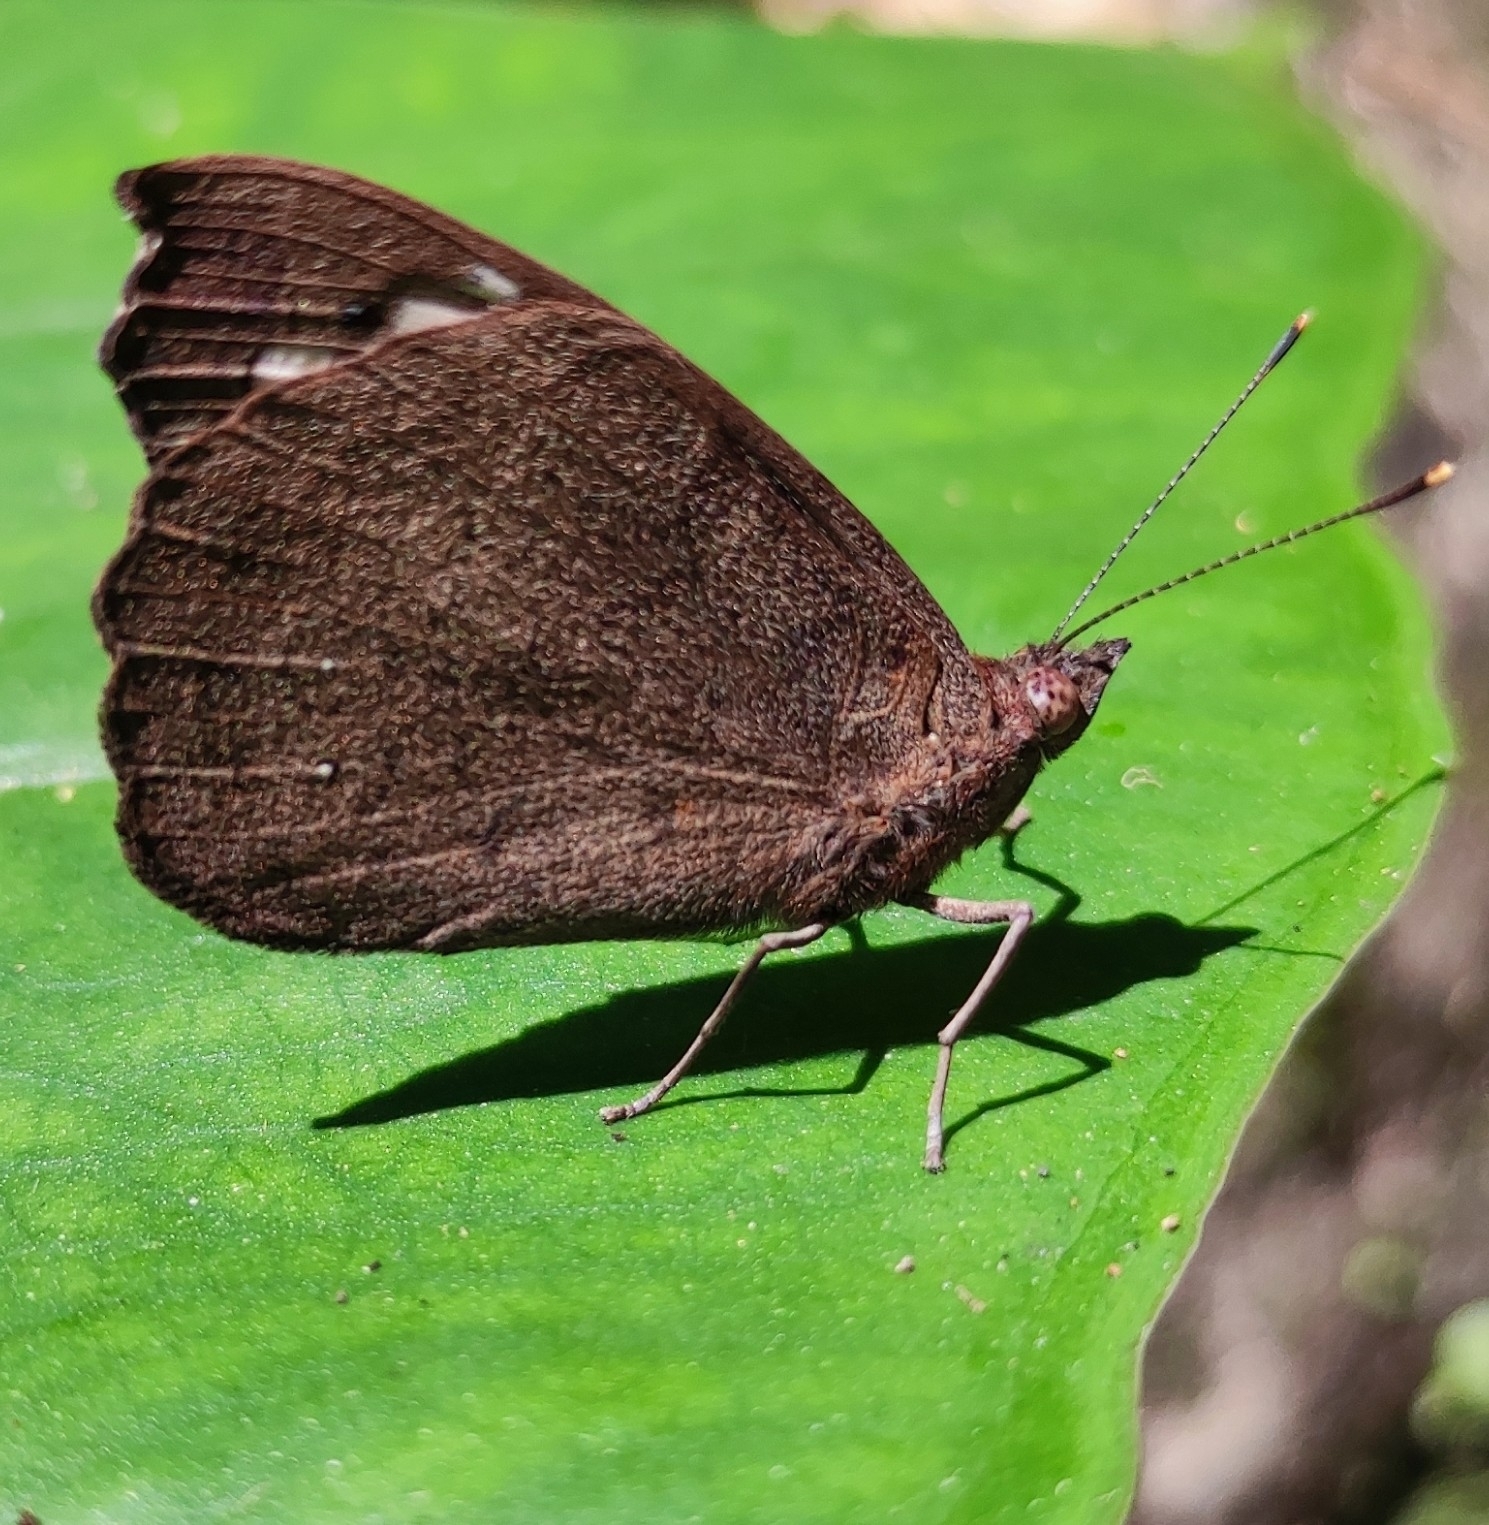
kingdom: Animalia
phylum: Arthropoda
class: Insecta
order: Lepidoptera
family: Nymphalidae
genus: Eunica
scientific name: Eunica tatila
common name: Florida purplewing
